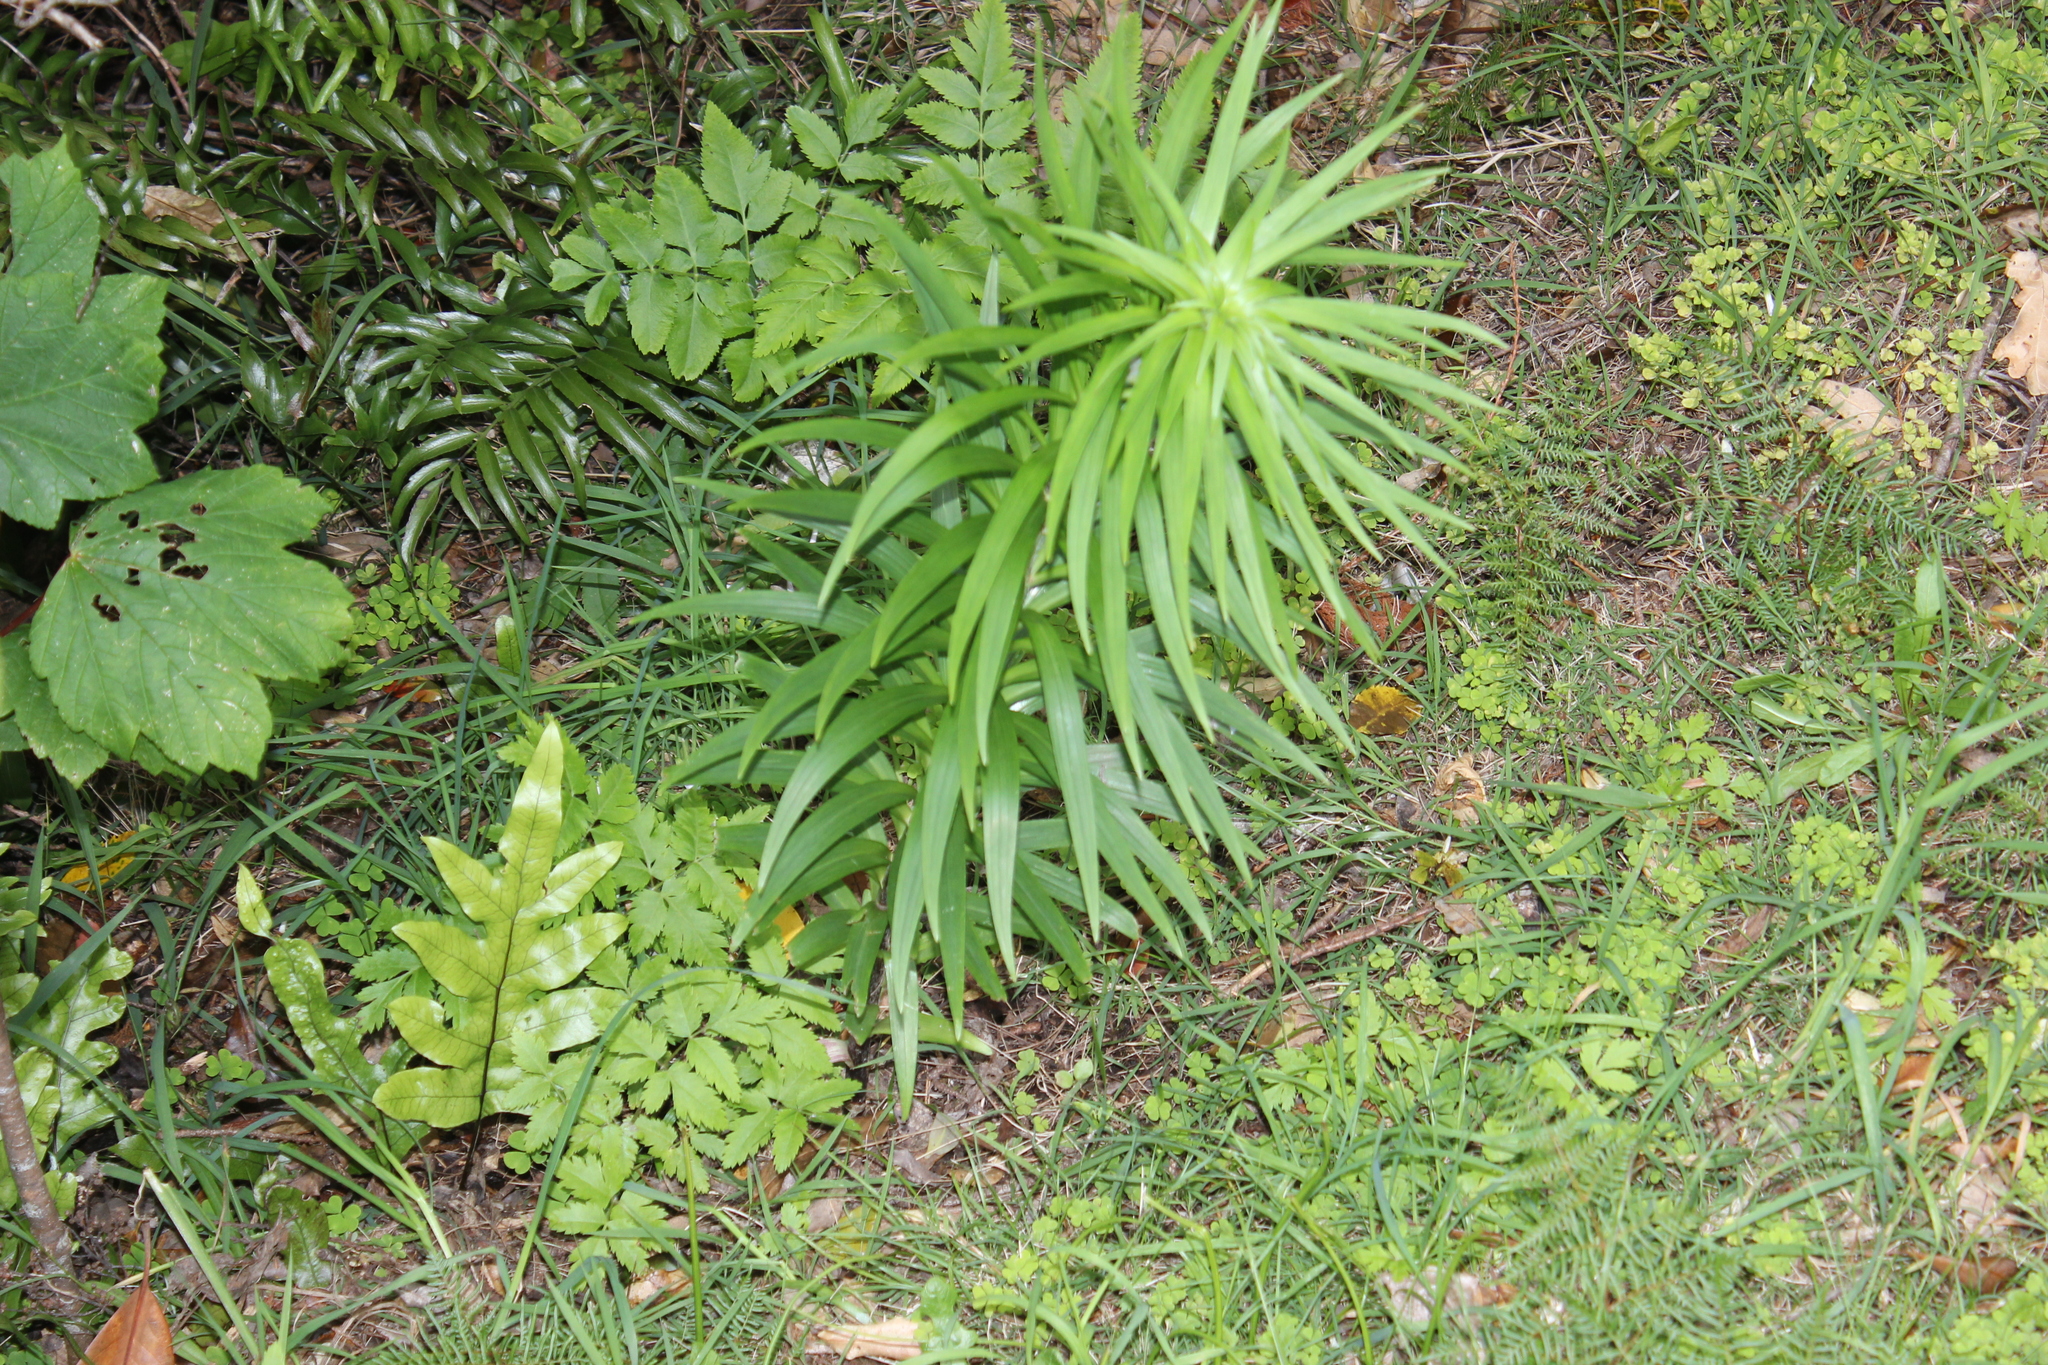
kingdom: Plantae
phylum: Tracheophyta
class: Liliopsida
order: Liliales
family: Liliaceae
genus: Lilium
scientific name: Lilium formosanum
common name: Formosa lily
